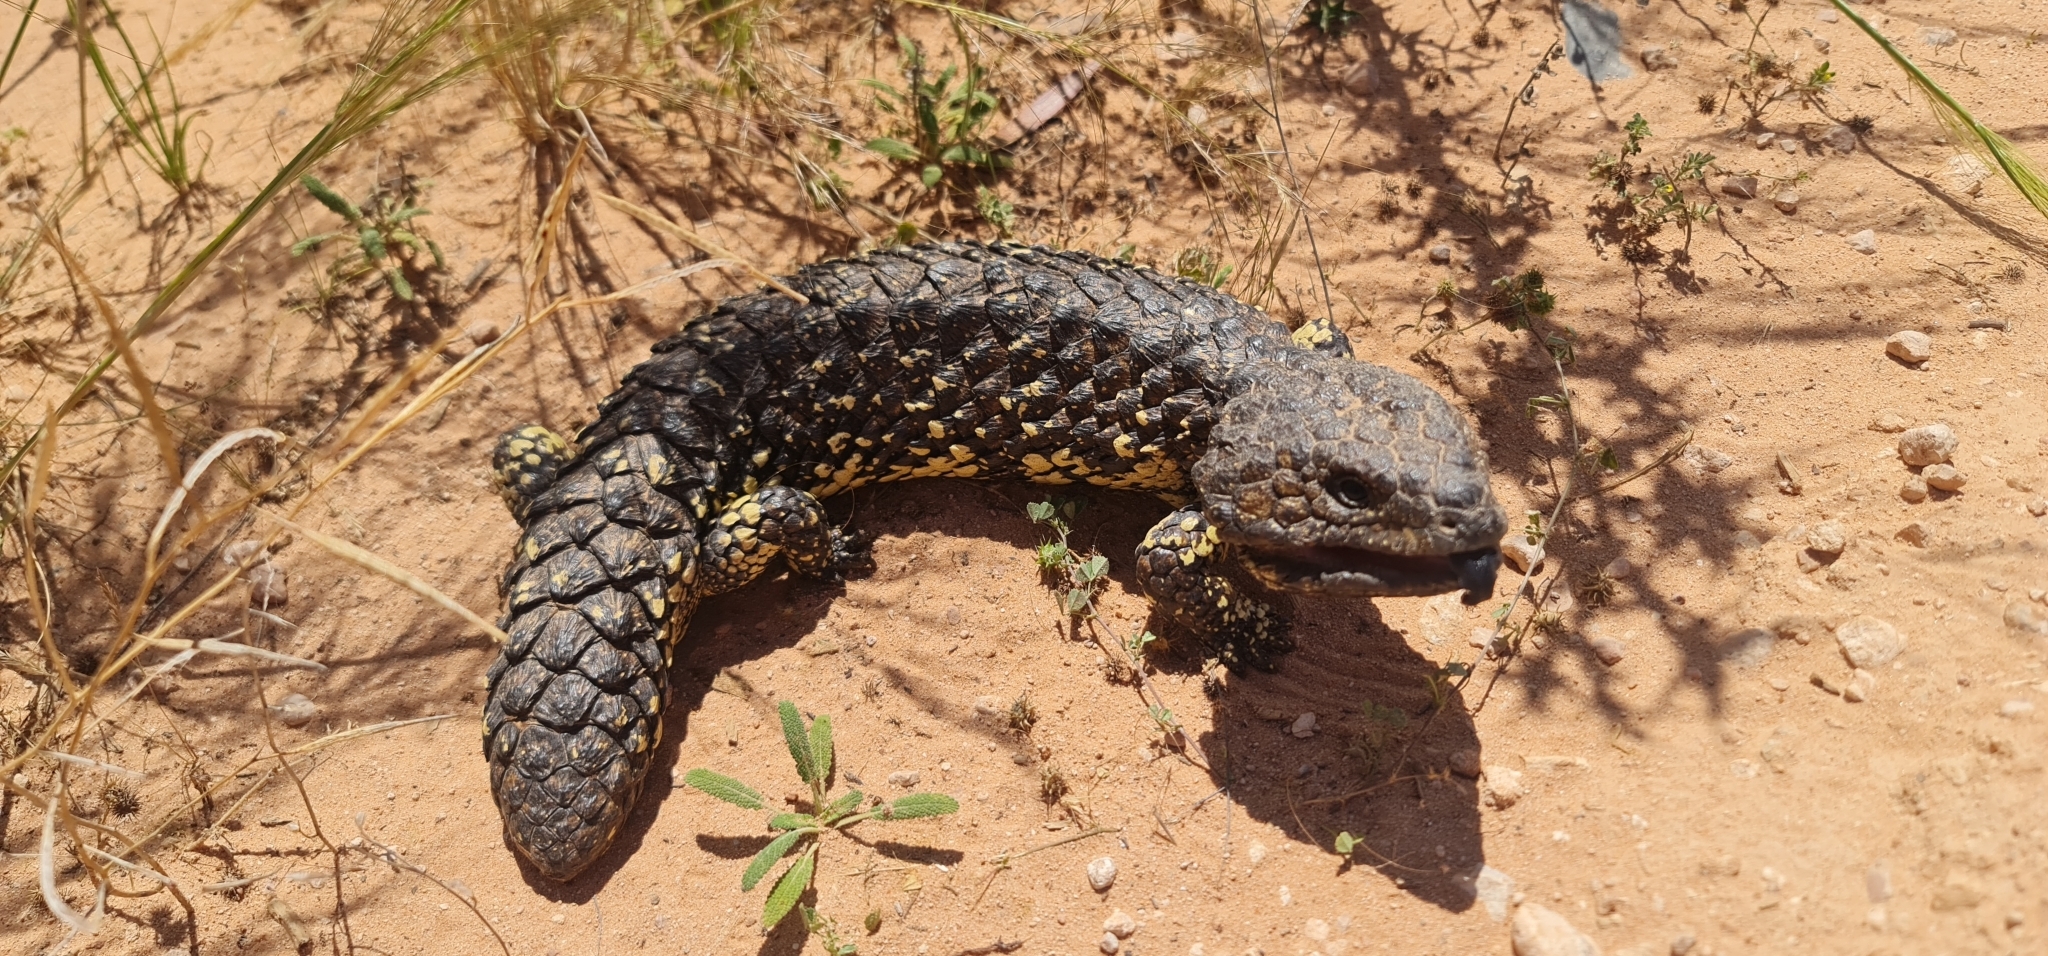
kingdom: Animalia
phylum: Chordata
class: Squamata
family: Scincidae
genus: Tiliqua
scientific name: Tiliqua rugosa
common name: Pinecone lizard
